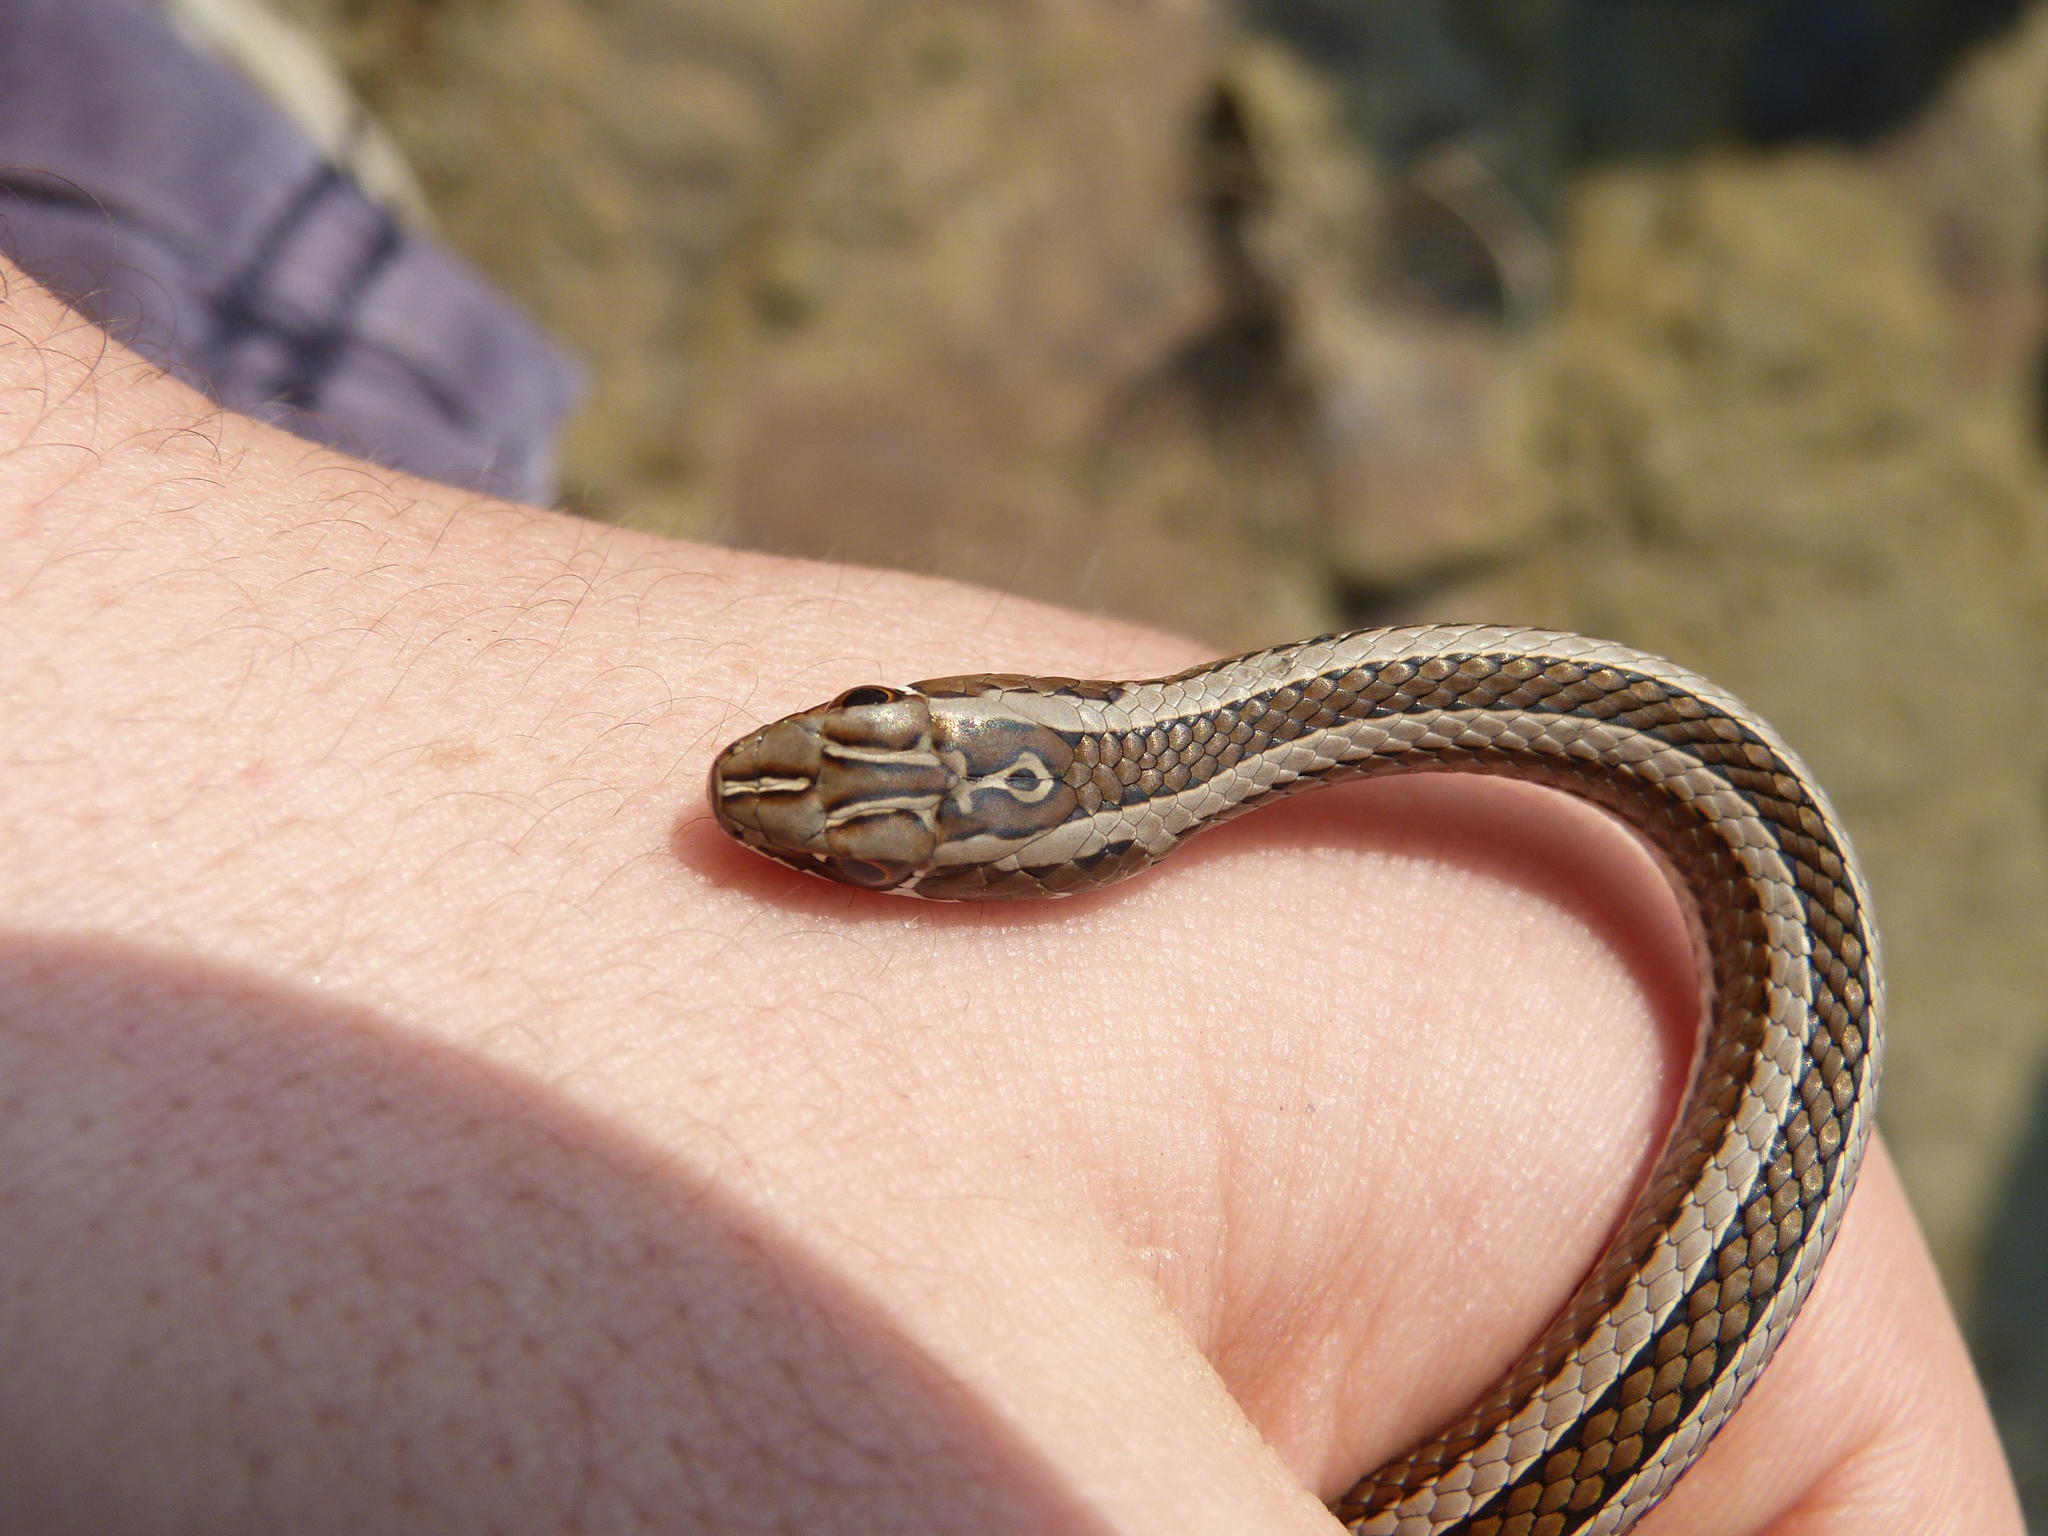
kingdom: Animalia
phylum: Chordata
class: Squamata
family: Psammophiidae
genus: Psammophis
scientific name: Psammophis crucifer
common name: Cross-marked grass snake
